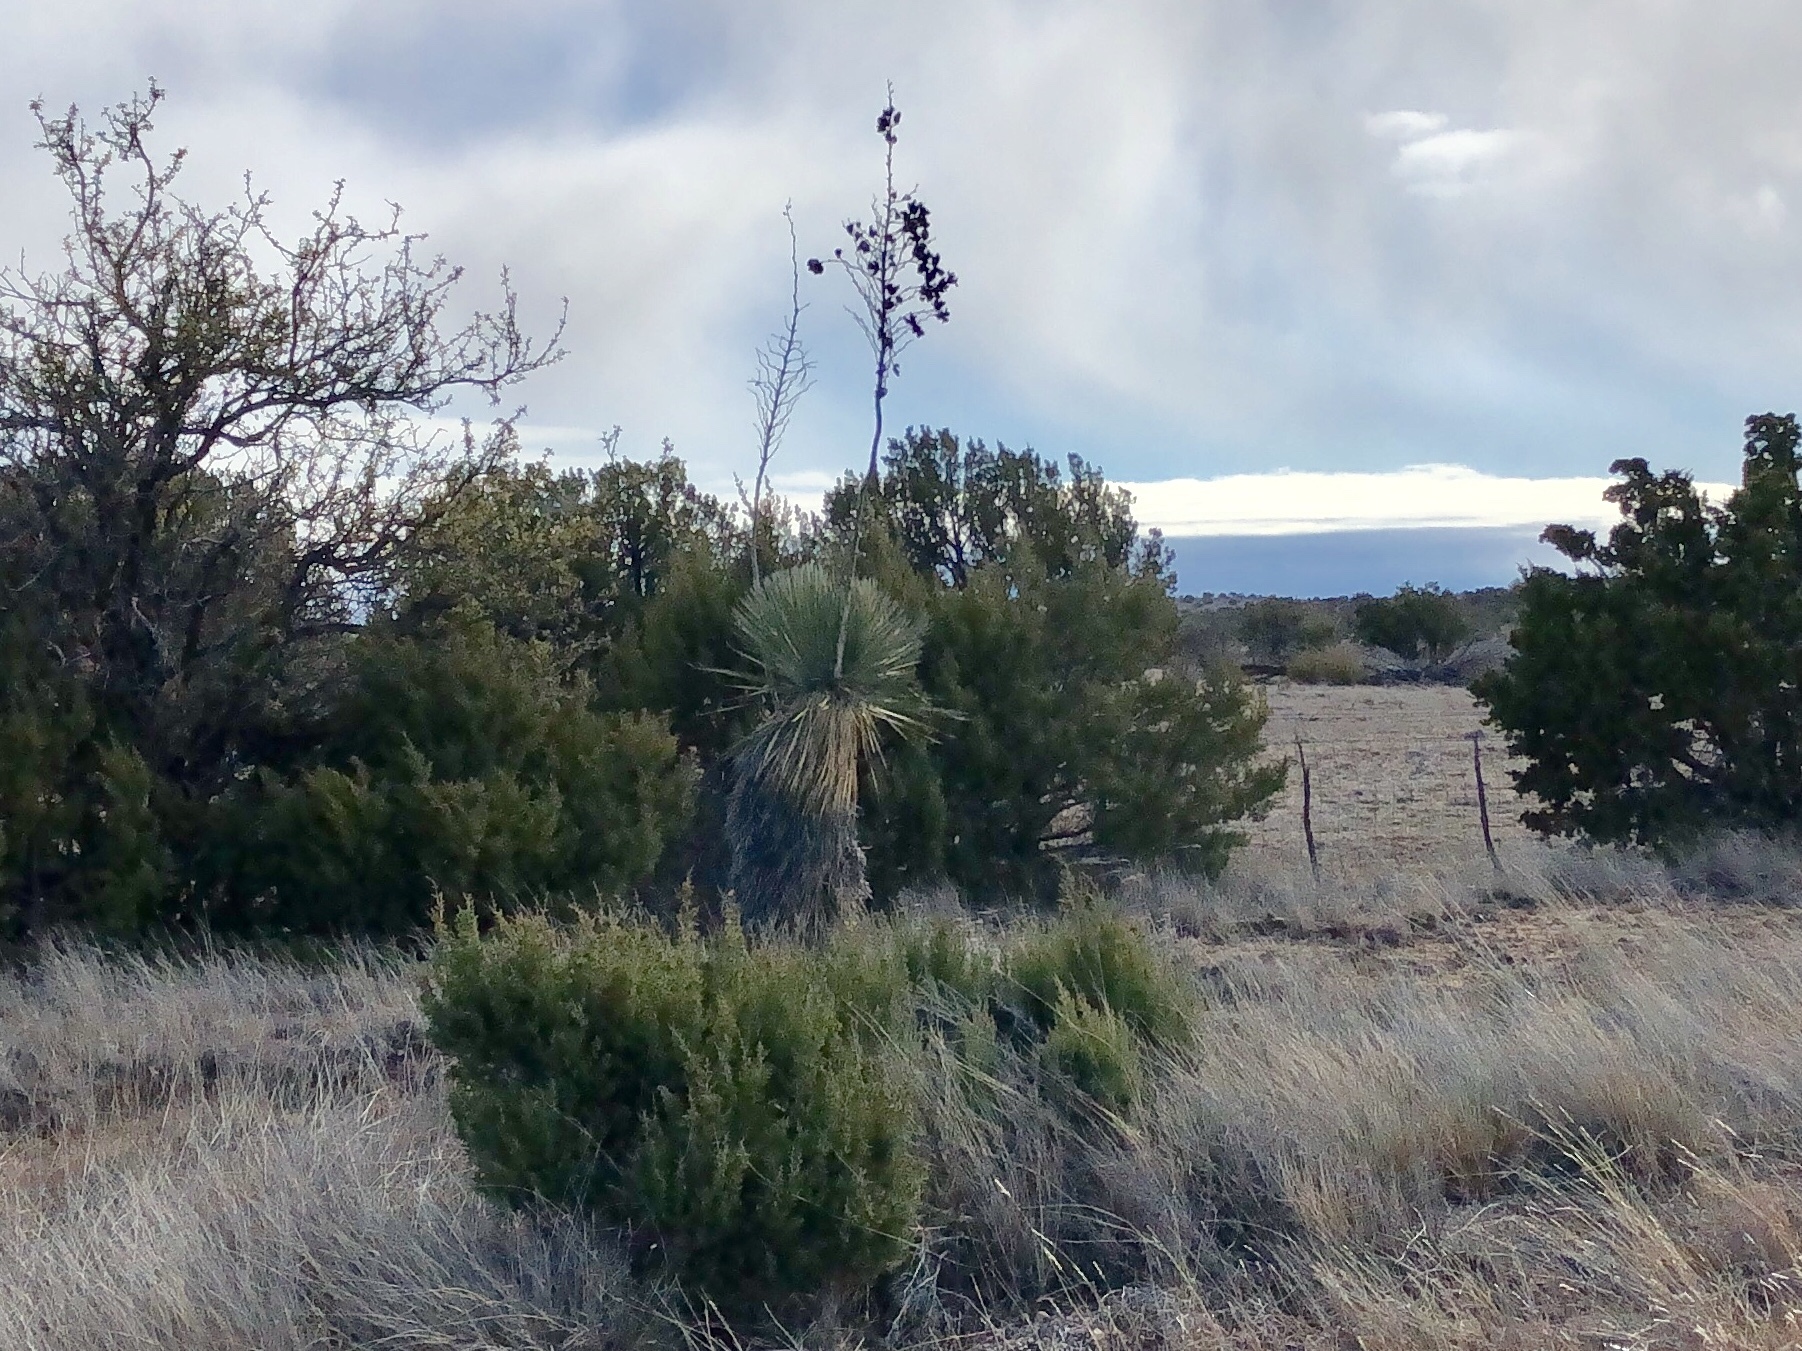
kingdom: Plantae
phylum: Tracheophyta
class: Liliopsida
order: Asparagales
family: Asparagaceae
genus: Yucca
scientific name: Yucca elata
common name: Palmella
